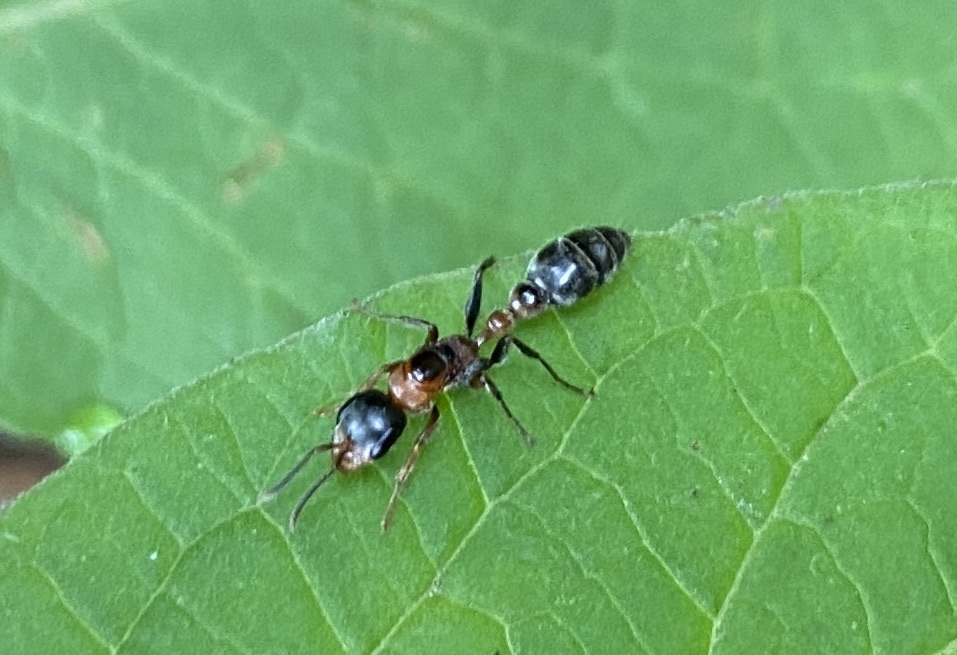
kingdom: Animalia
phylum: Arthropoda
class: Insecta
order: Hymenoptera
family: Formicidae
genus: Pseudomyrmex
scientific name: Pseudomyrmex gracilis
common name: Graceful twig ant
